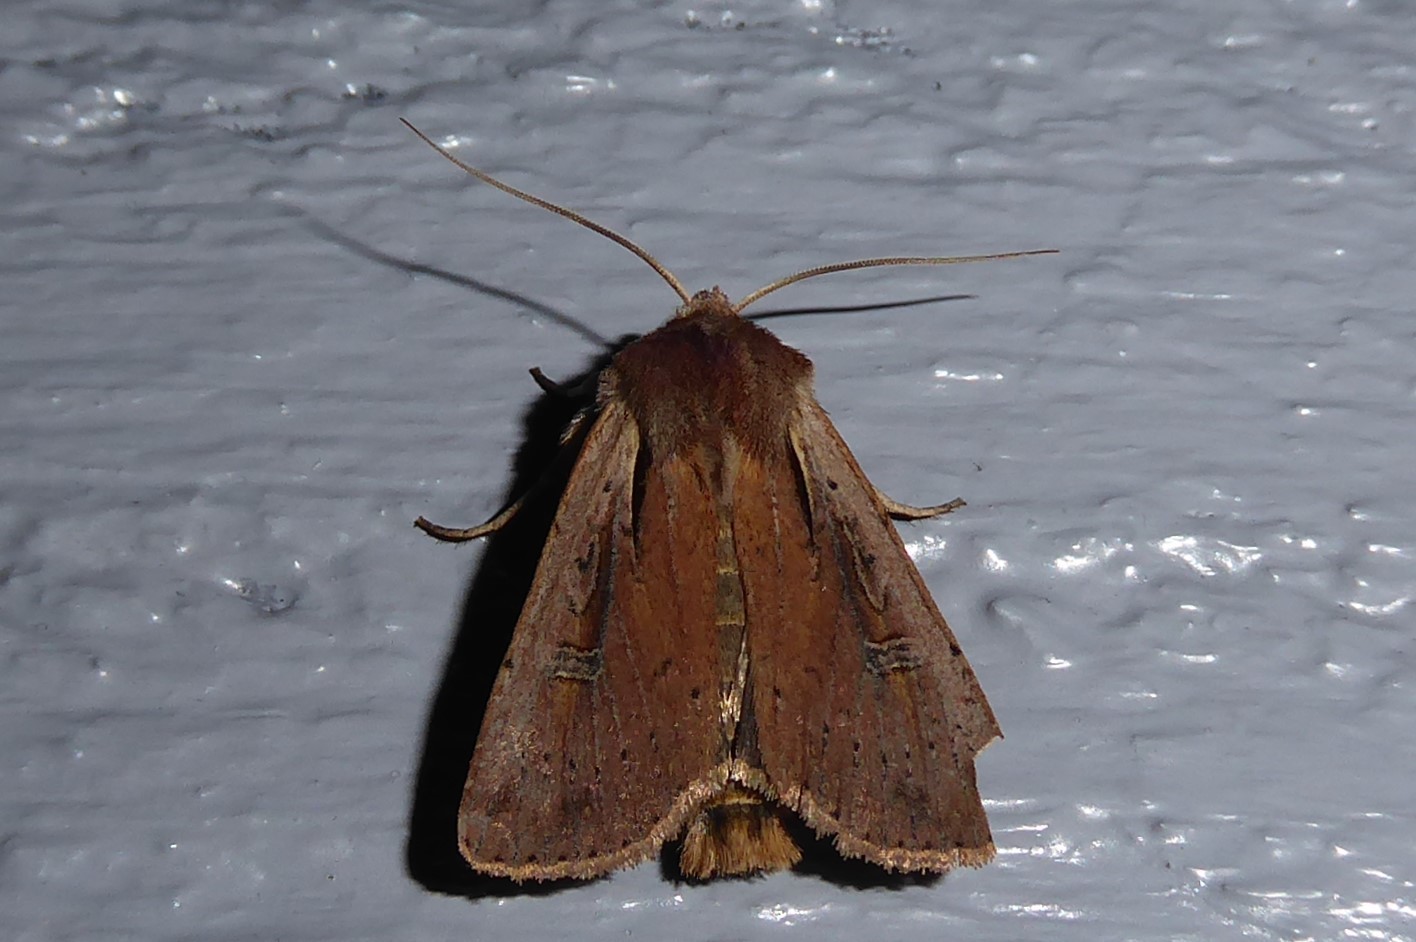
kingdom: Animalia
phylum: Arthropoda
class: Insecta
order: Lepidoptera
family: Noctuidae
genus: Ichneutica
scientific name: Ichneutica atristriga
